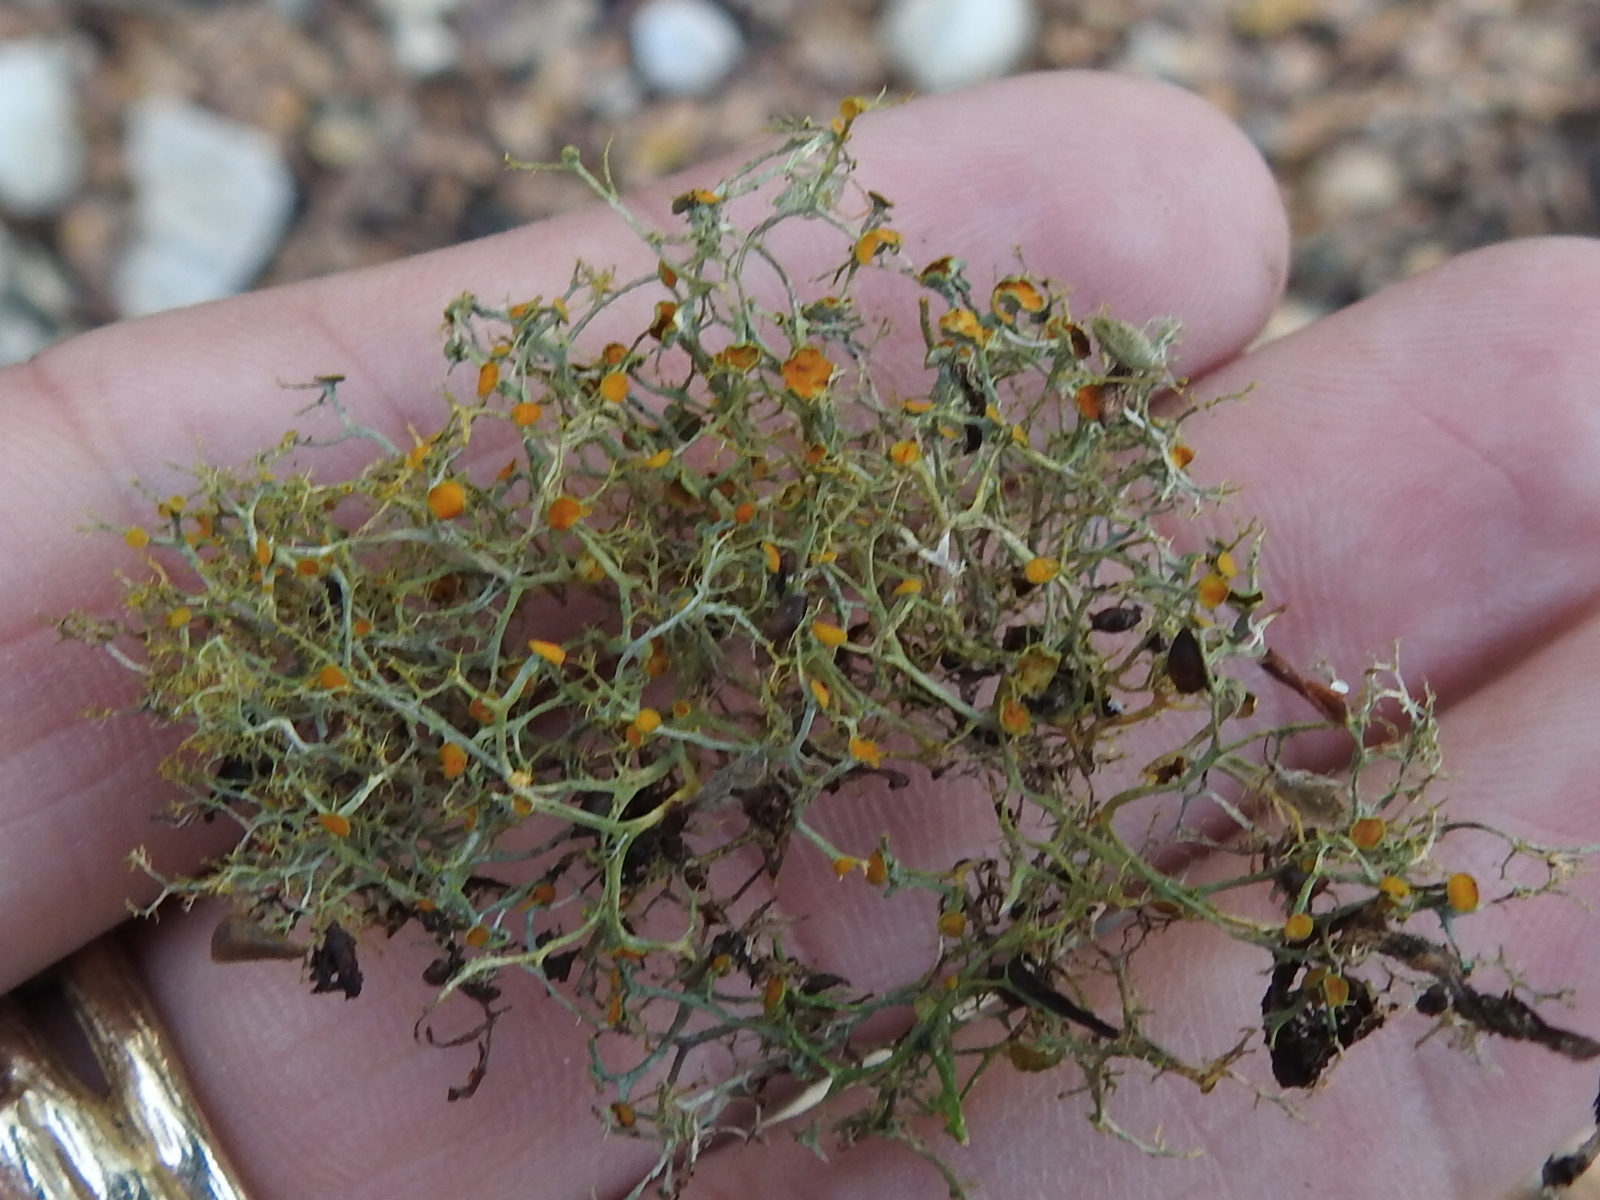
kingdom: Fungi
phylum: Ascomycota
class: Lecanoromycetes
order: Teloschistales
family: Teloschistaceae
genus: Teloschistes
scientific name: Teloschistes exilis
